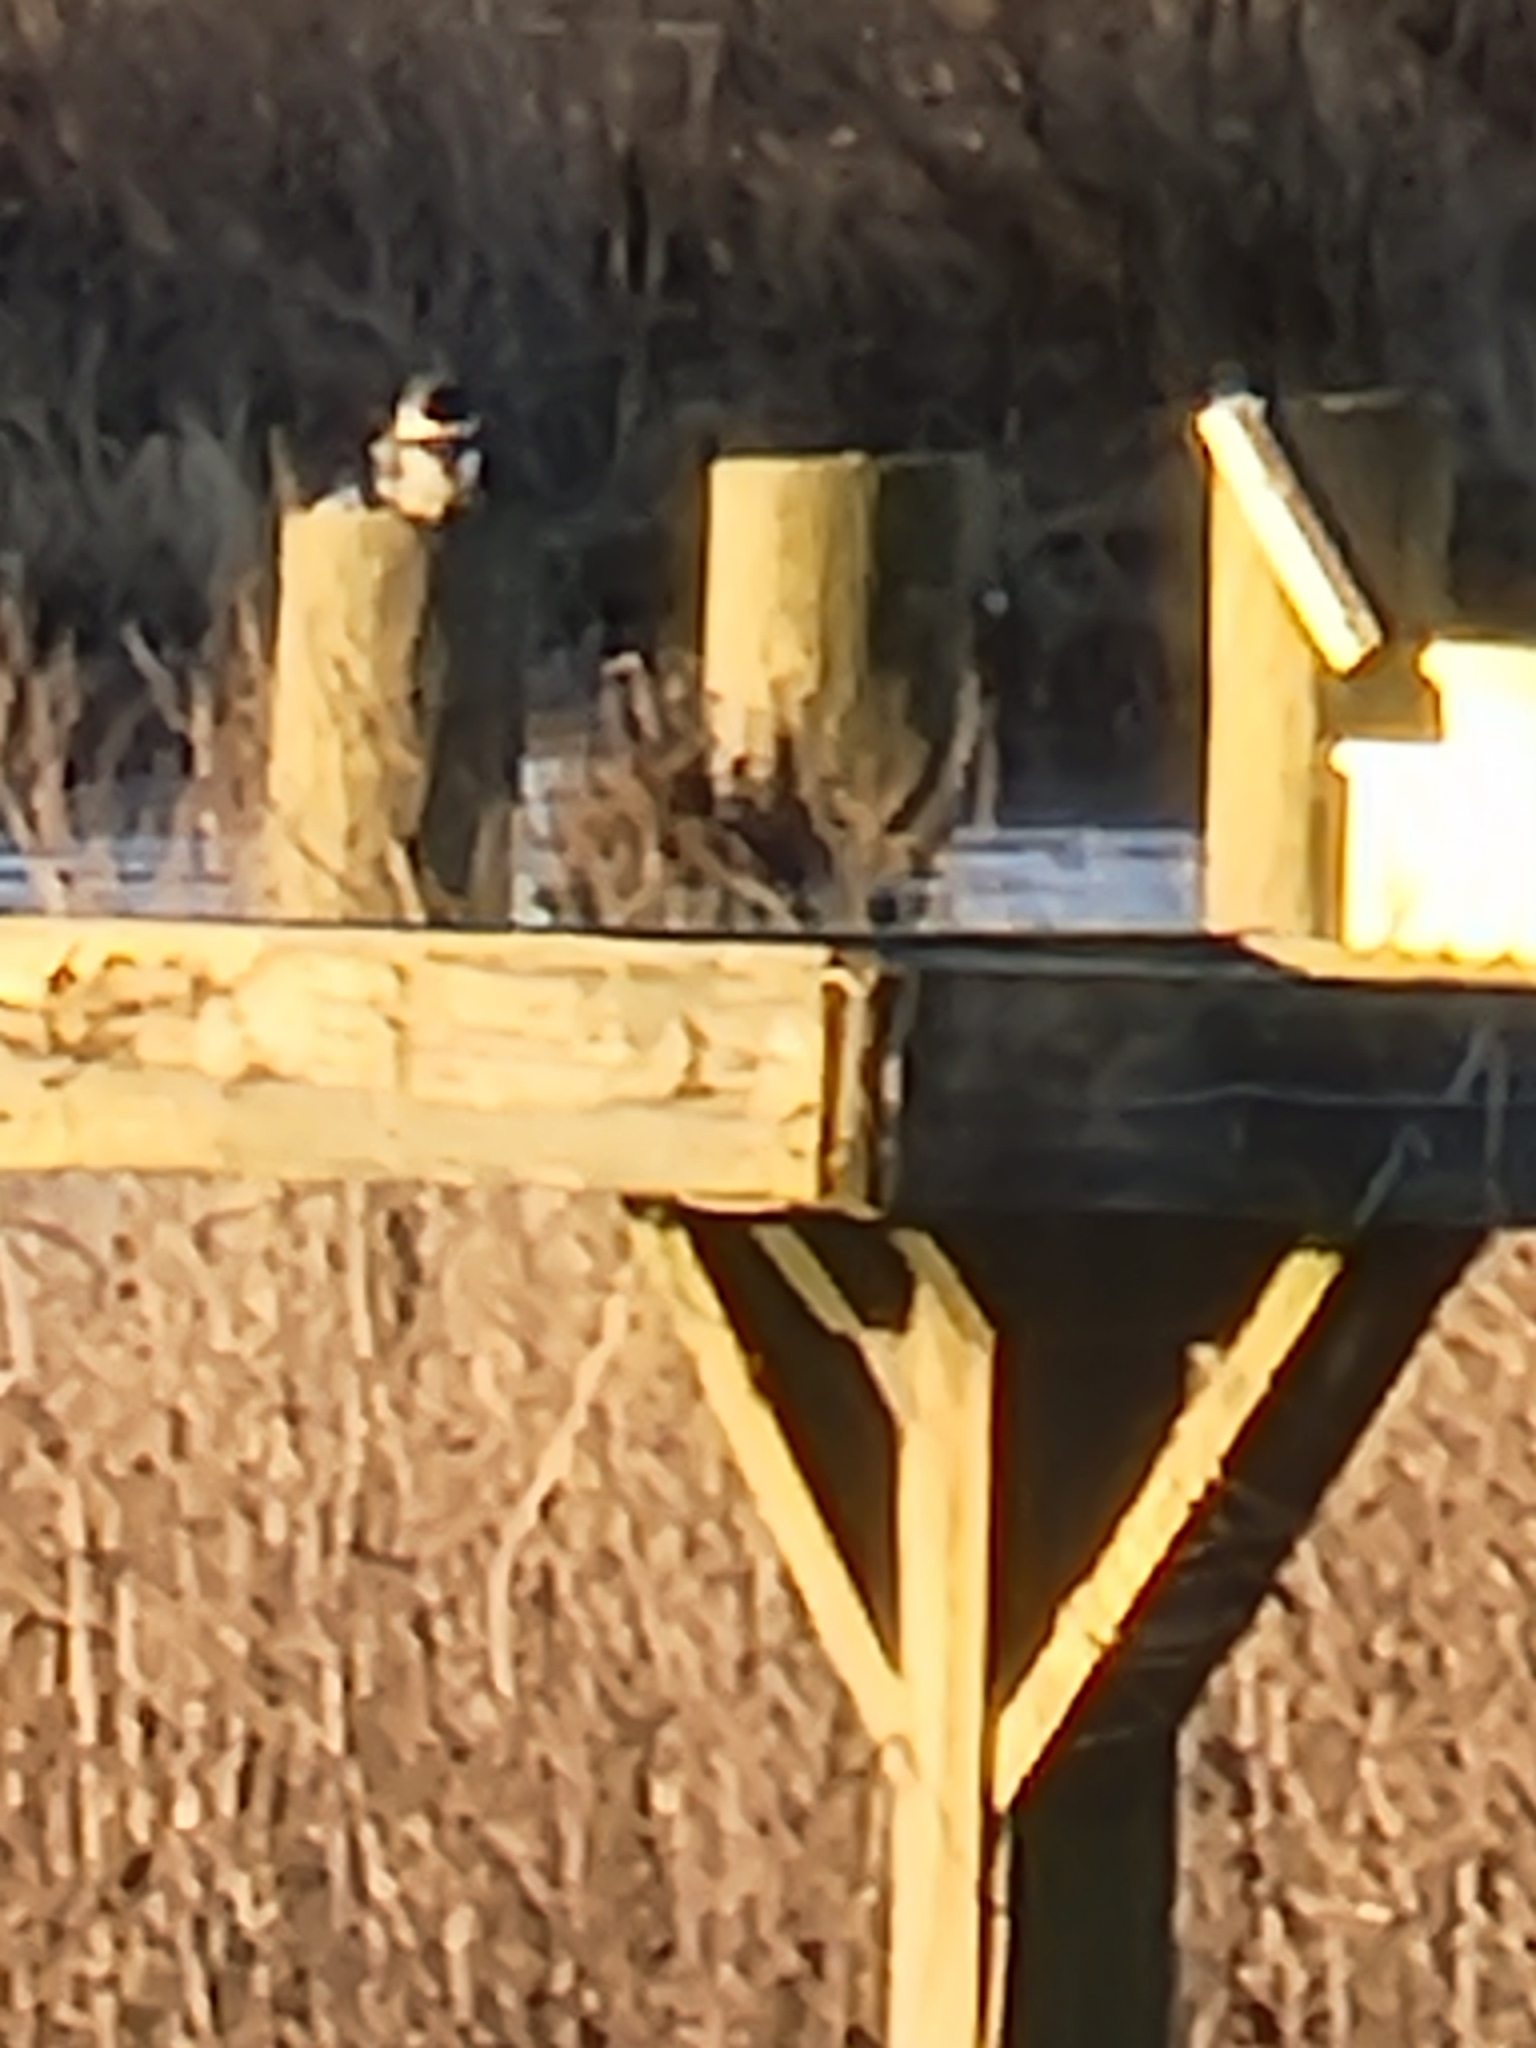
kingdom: Animalia
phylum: Chordata
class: Aves
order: Coraciiformes
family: Alcedinidae
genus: Megaceryle
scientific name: Megaceryle alcyon
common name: Belted kingfisher
